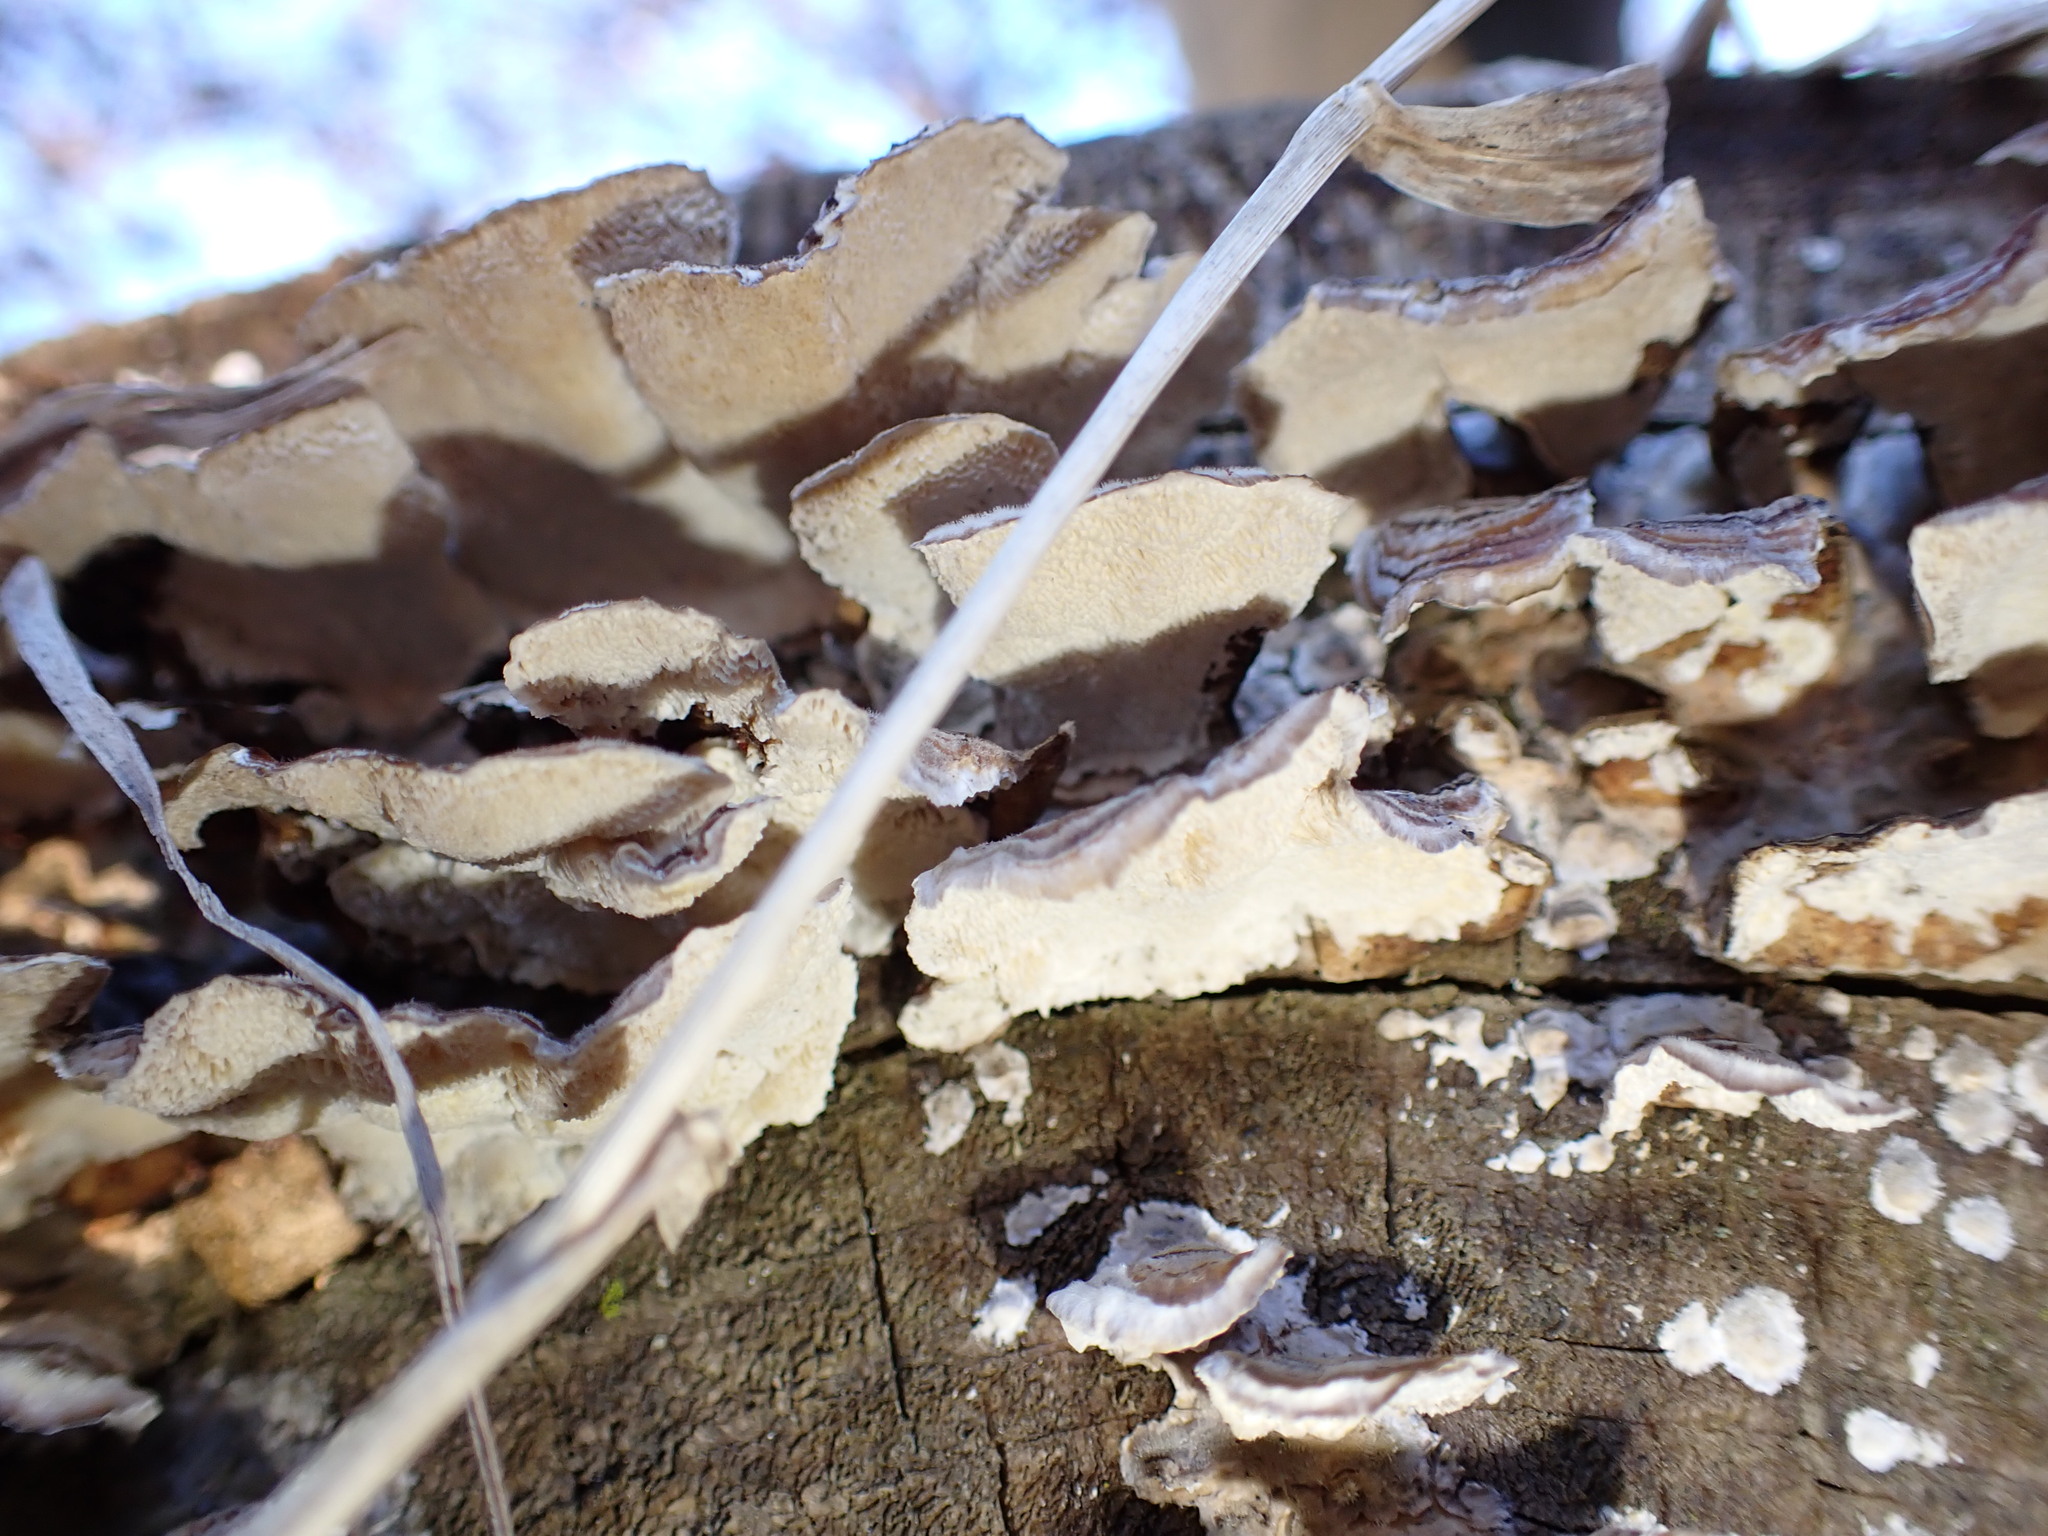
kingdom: Fungi
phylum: Basidiomycota
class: Agaricomycetes
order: Polyporales
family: Polyporaceae
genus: Trametes
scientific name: Trametes versicolor
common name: Turkeytail
